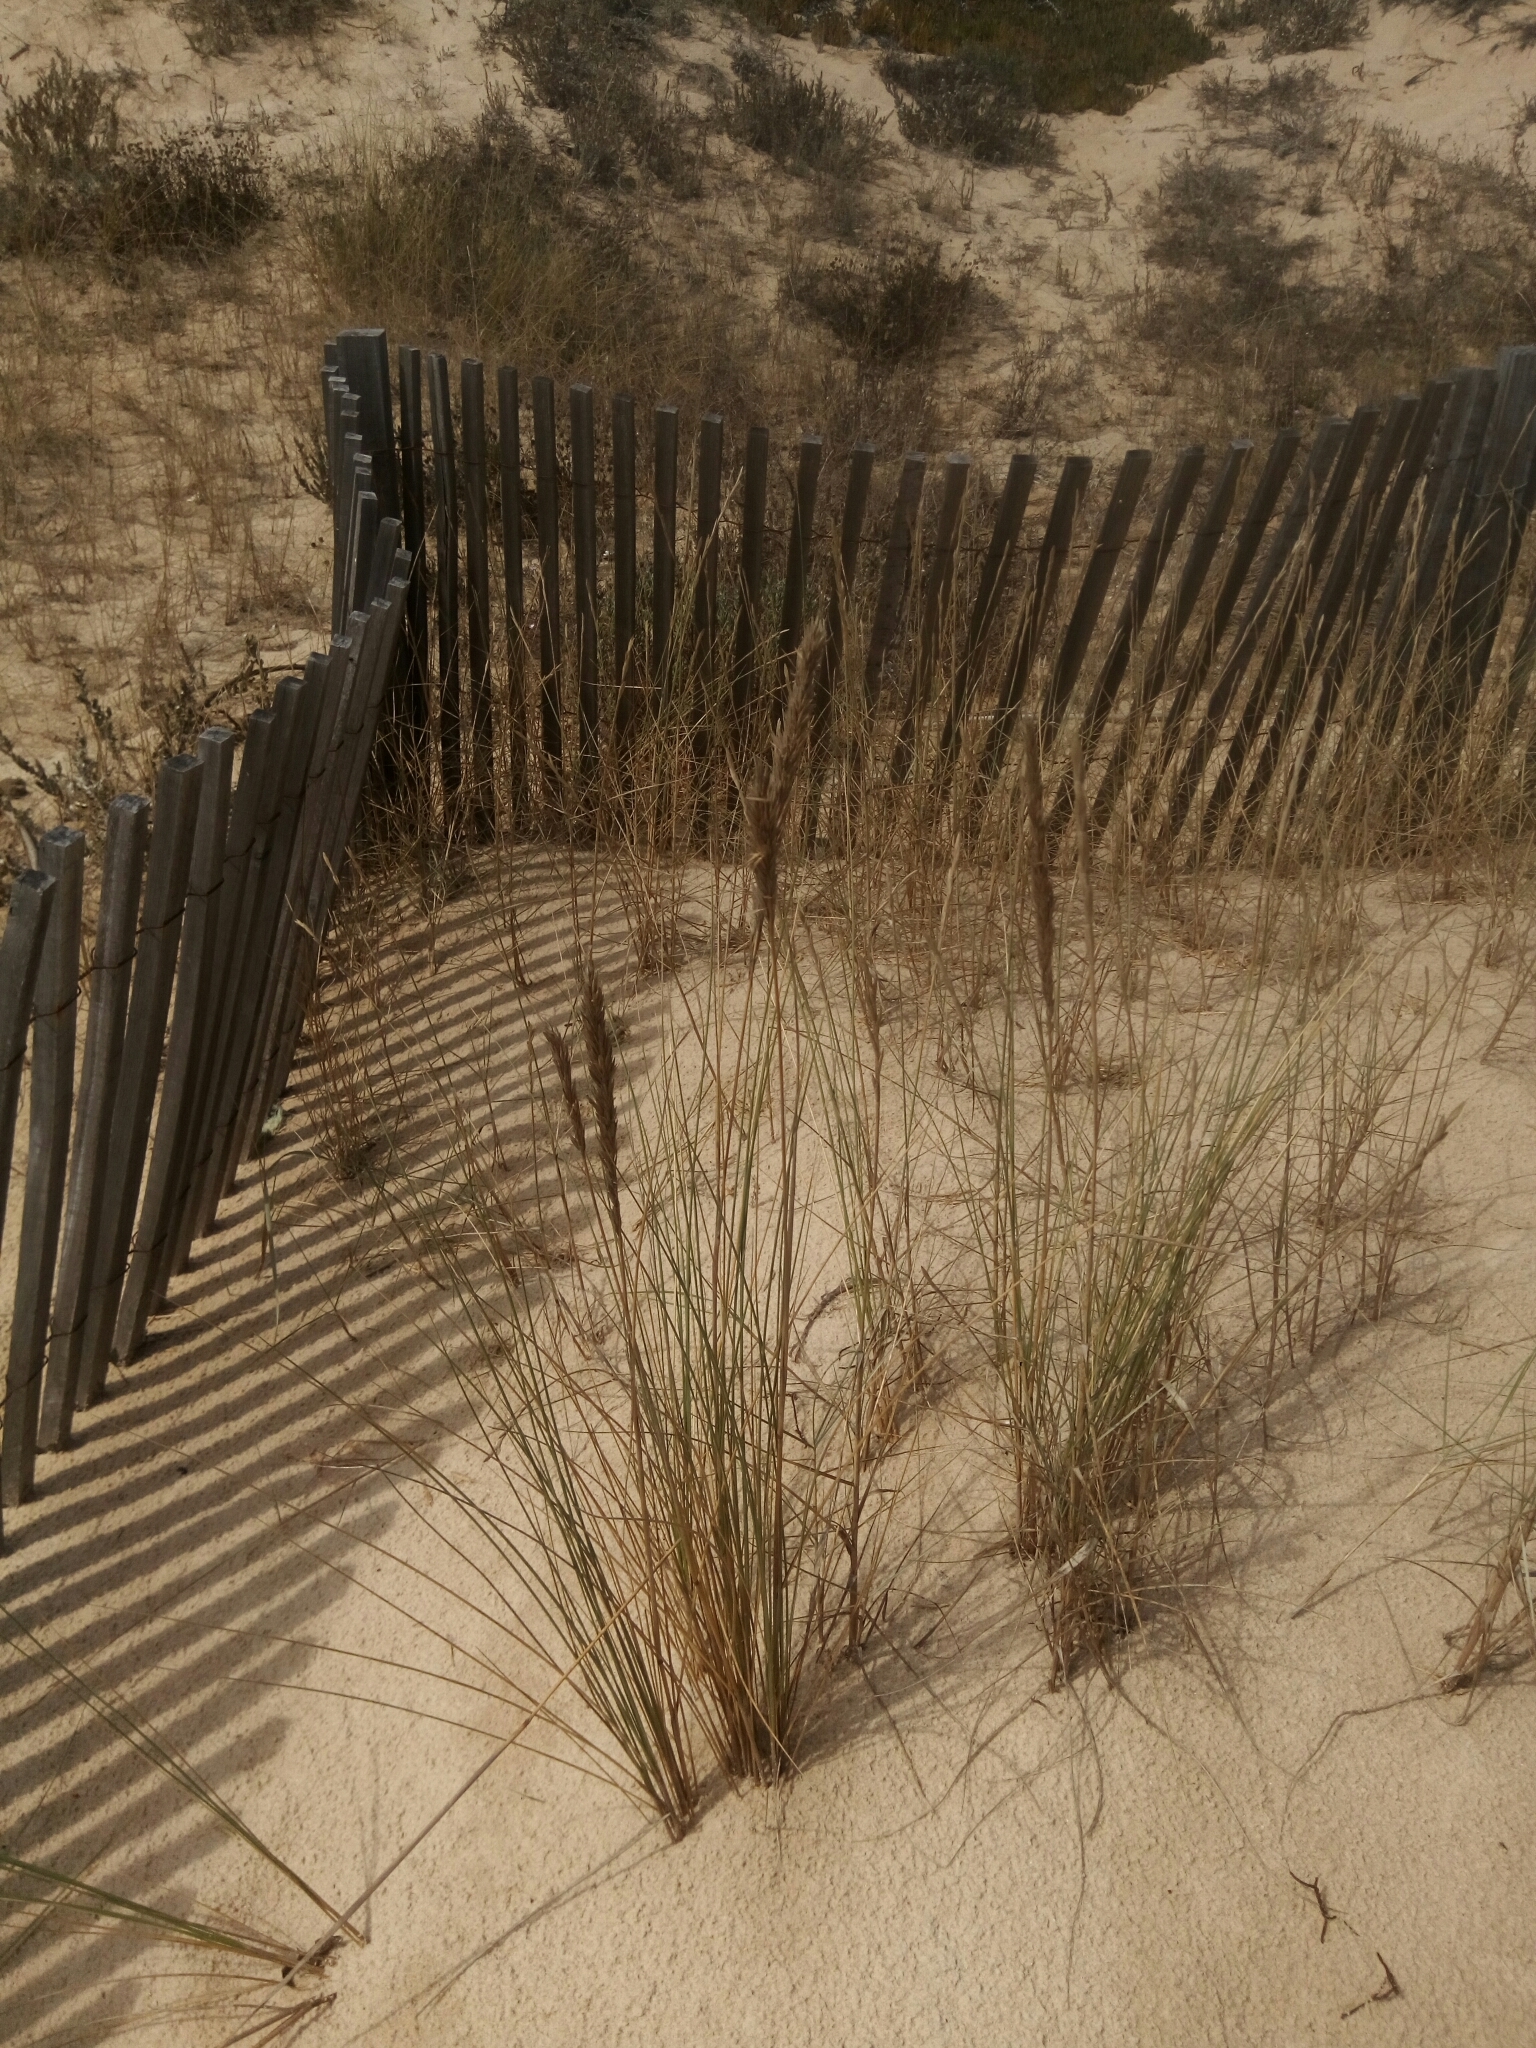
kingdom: Plantae
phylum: Tracheophyta
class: Liliopsida
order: Poales
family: Poaceae
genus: Calamagrostis
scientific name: Calamagrostis arenaria
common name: European beachgrass
